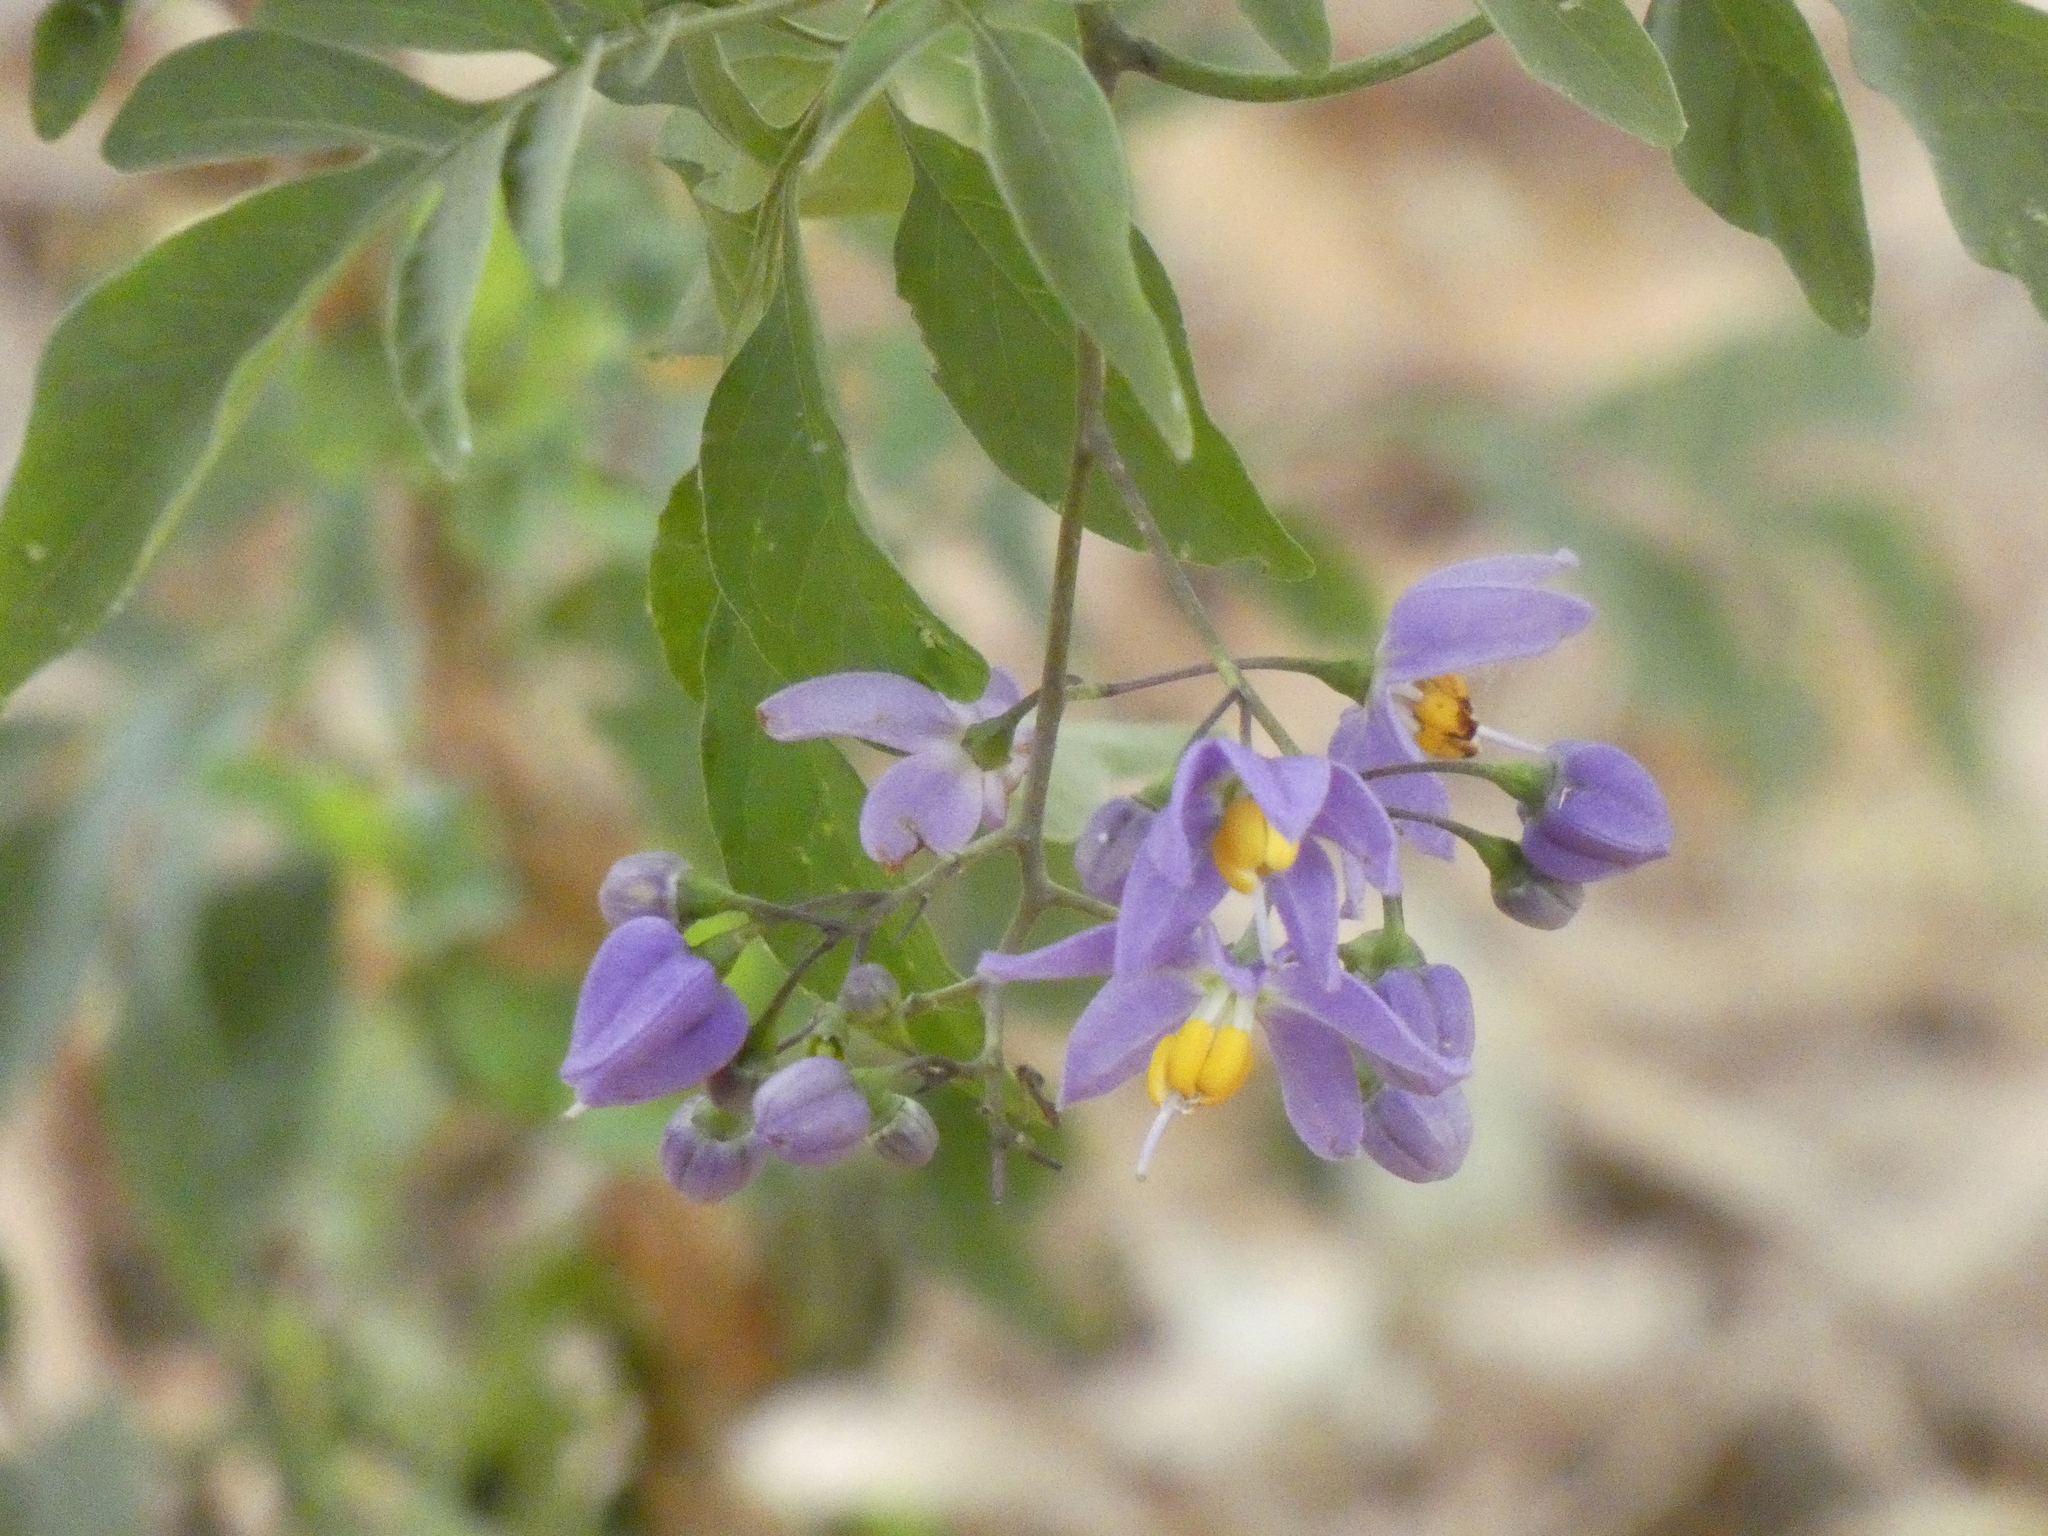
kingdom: Plantae
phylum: Tracheophyta
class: Magnoliopsida
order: Solanales
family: Solanaceae
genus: Solanum
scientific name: Solanum seaforthianum
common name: Brazilian nightshade
